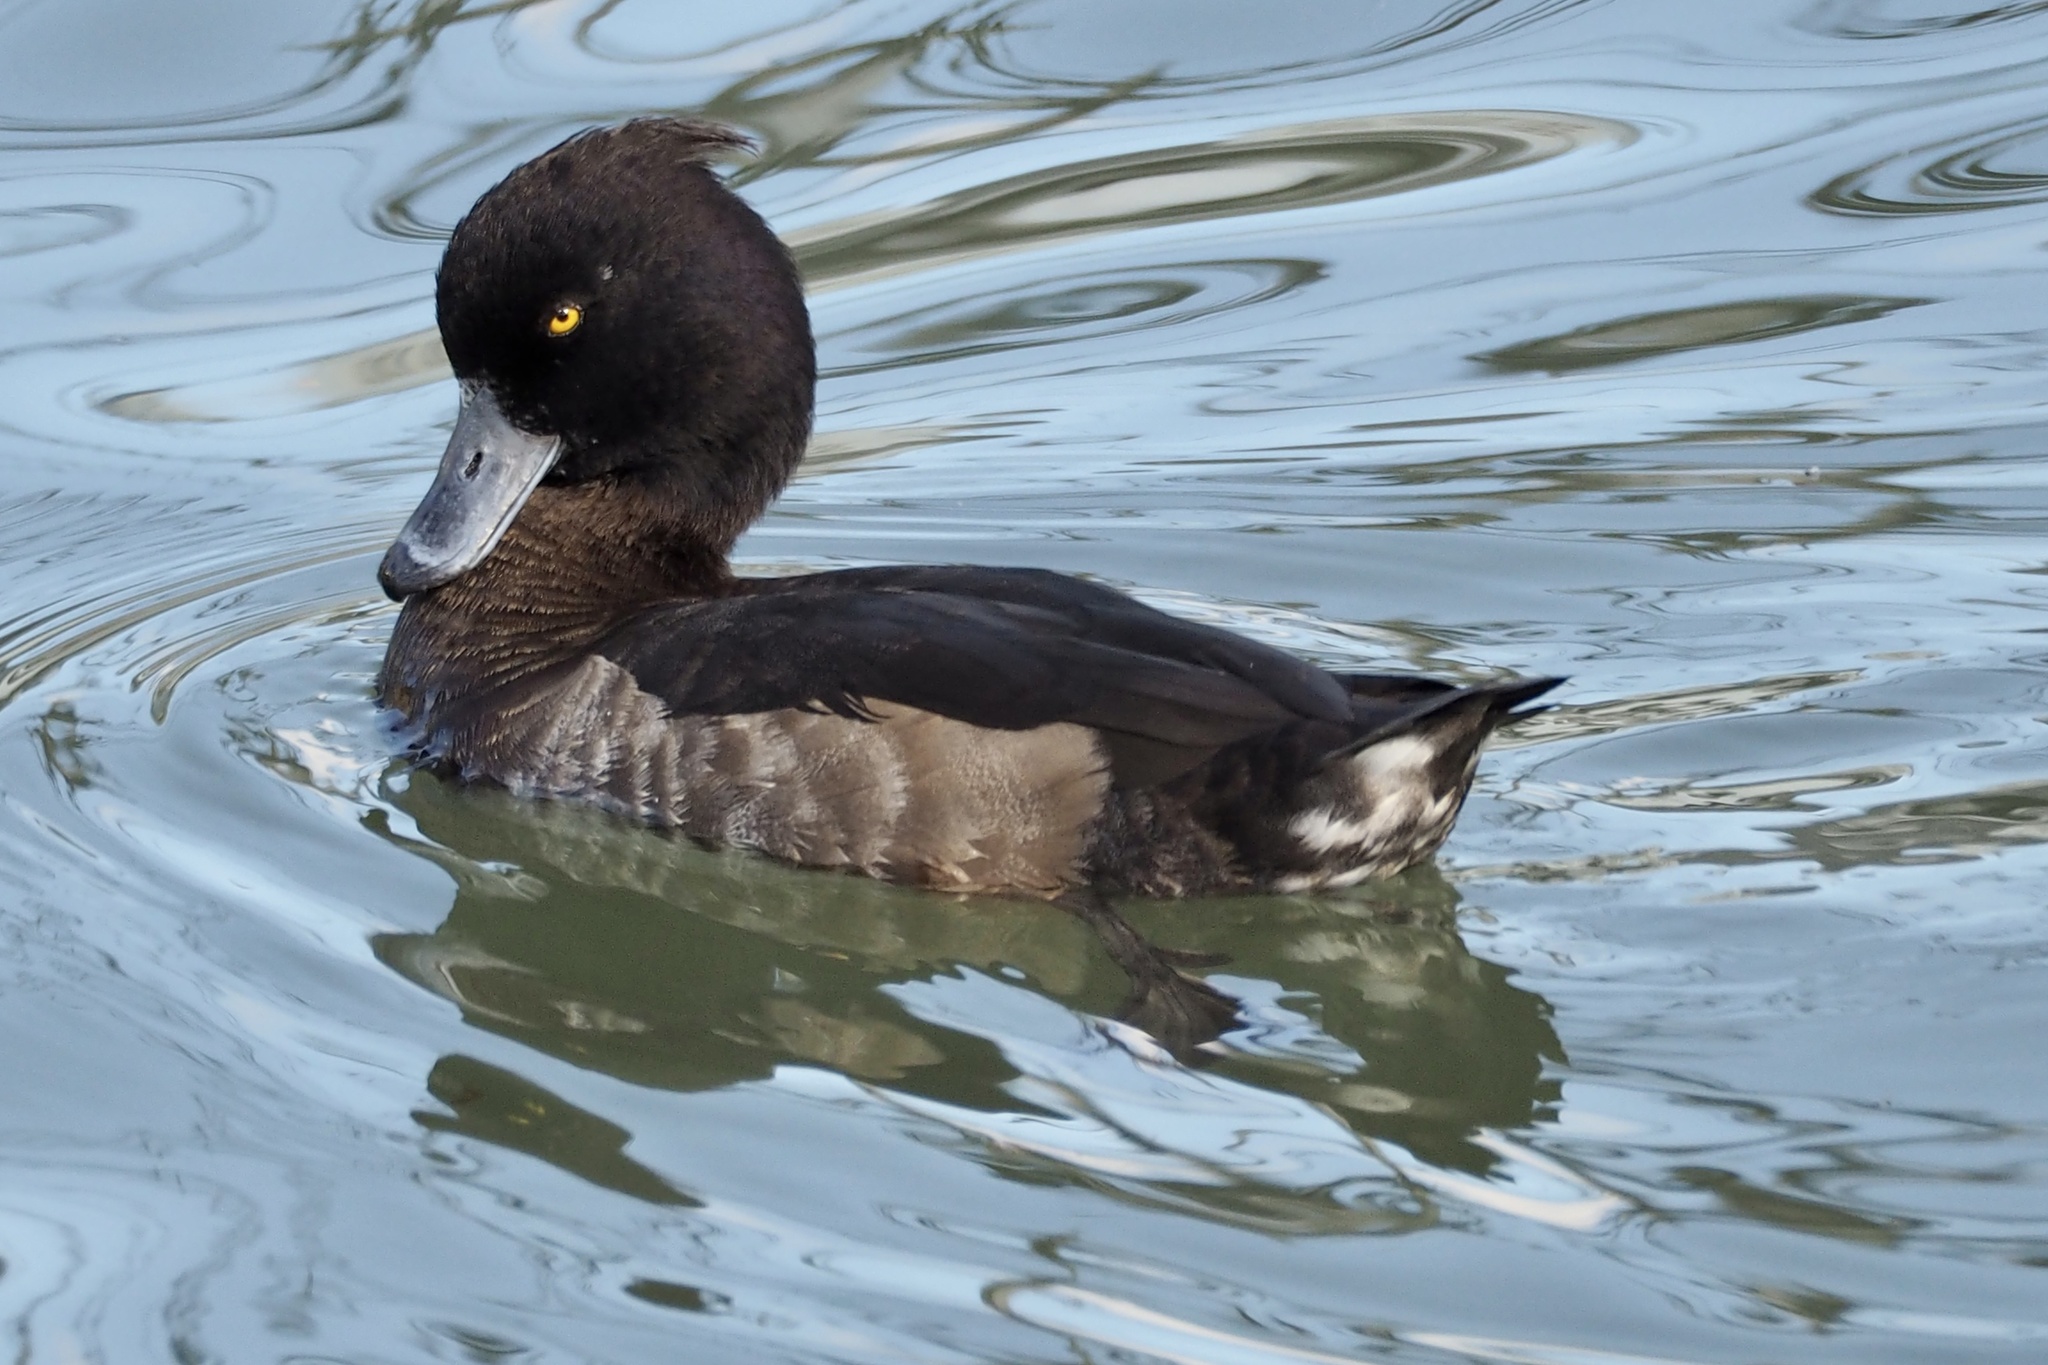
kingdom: Animalia
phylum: Chordata
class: Aves
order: Anseriformes
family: Anatidae
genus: Aythya
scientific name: Aythya fuligula
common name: Tufted duck
